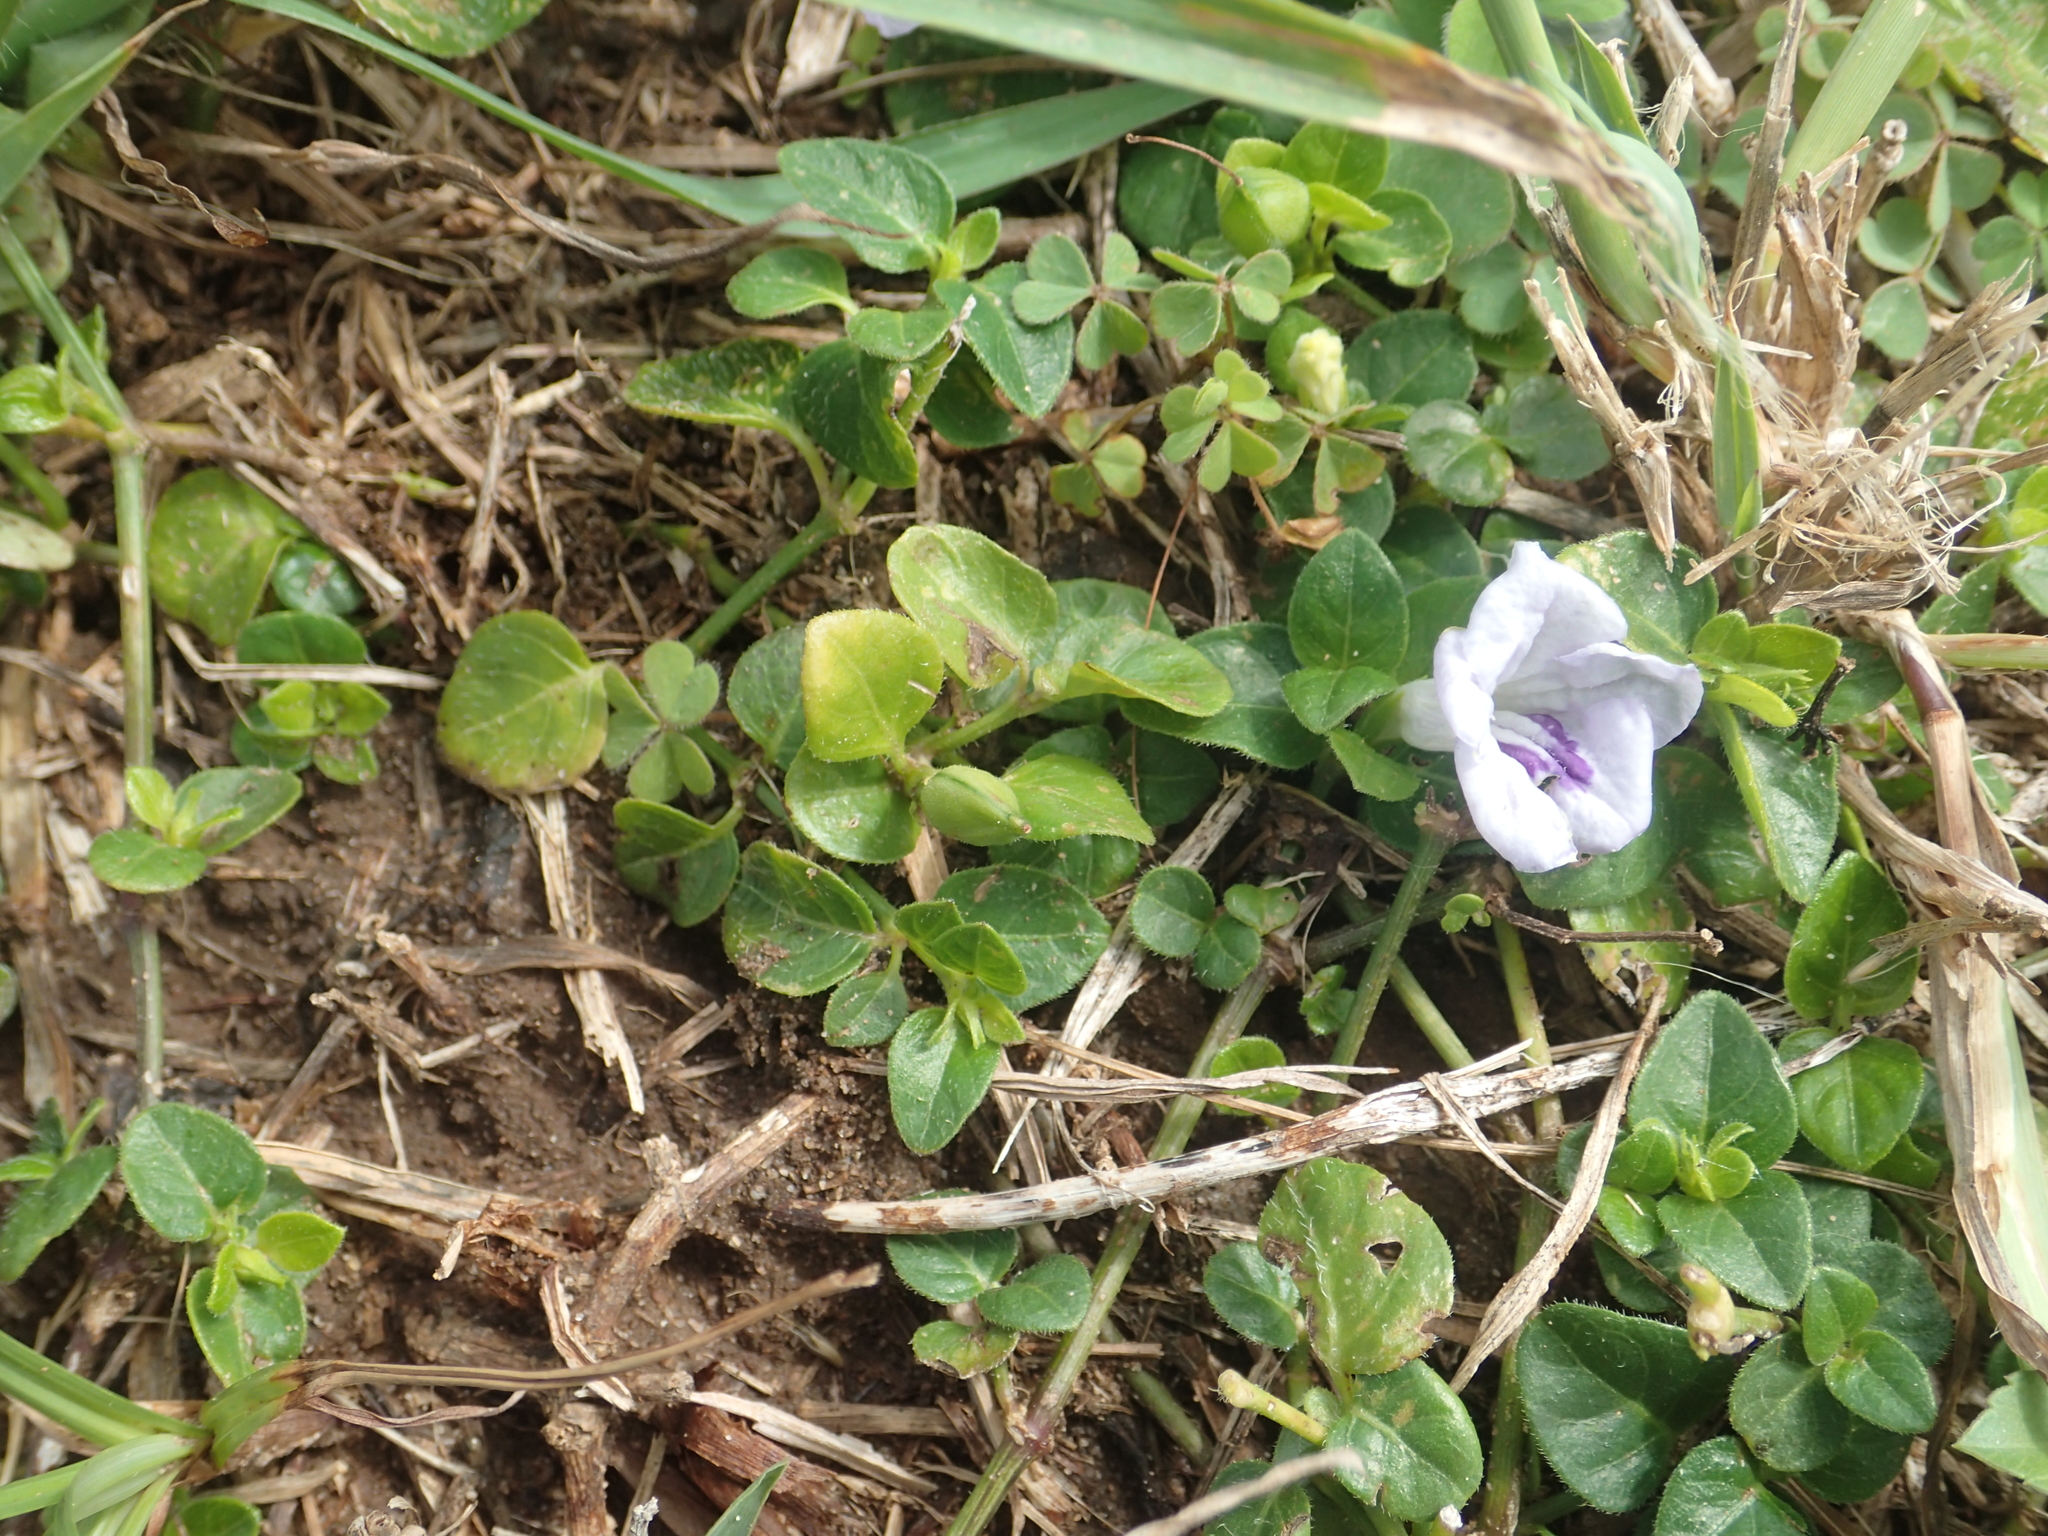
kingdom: Plantae
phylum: Tracheophyta
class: Magnoliopsida
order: Lamiales
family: Acanthaceae
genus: Ruellia
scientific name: Ruellia repens
